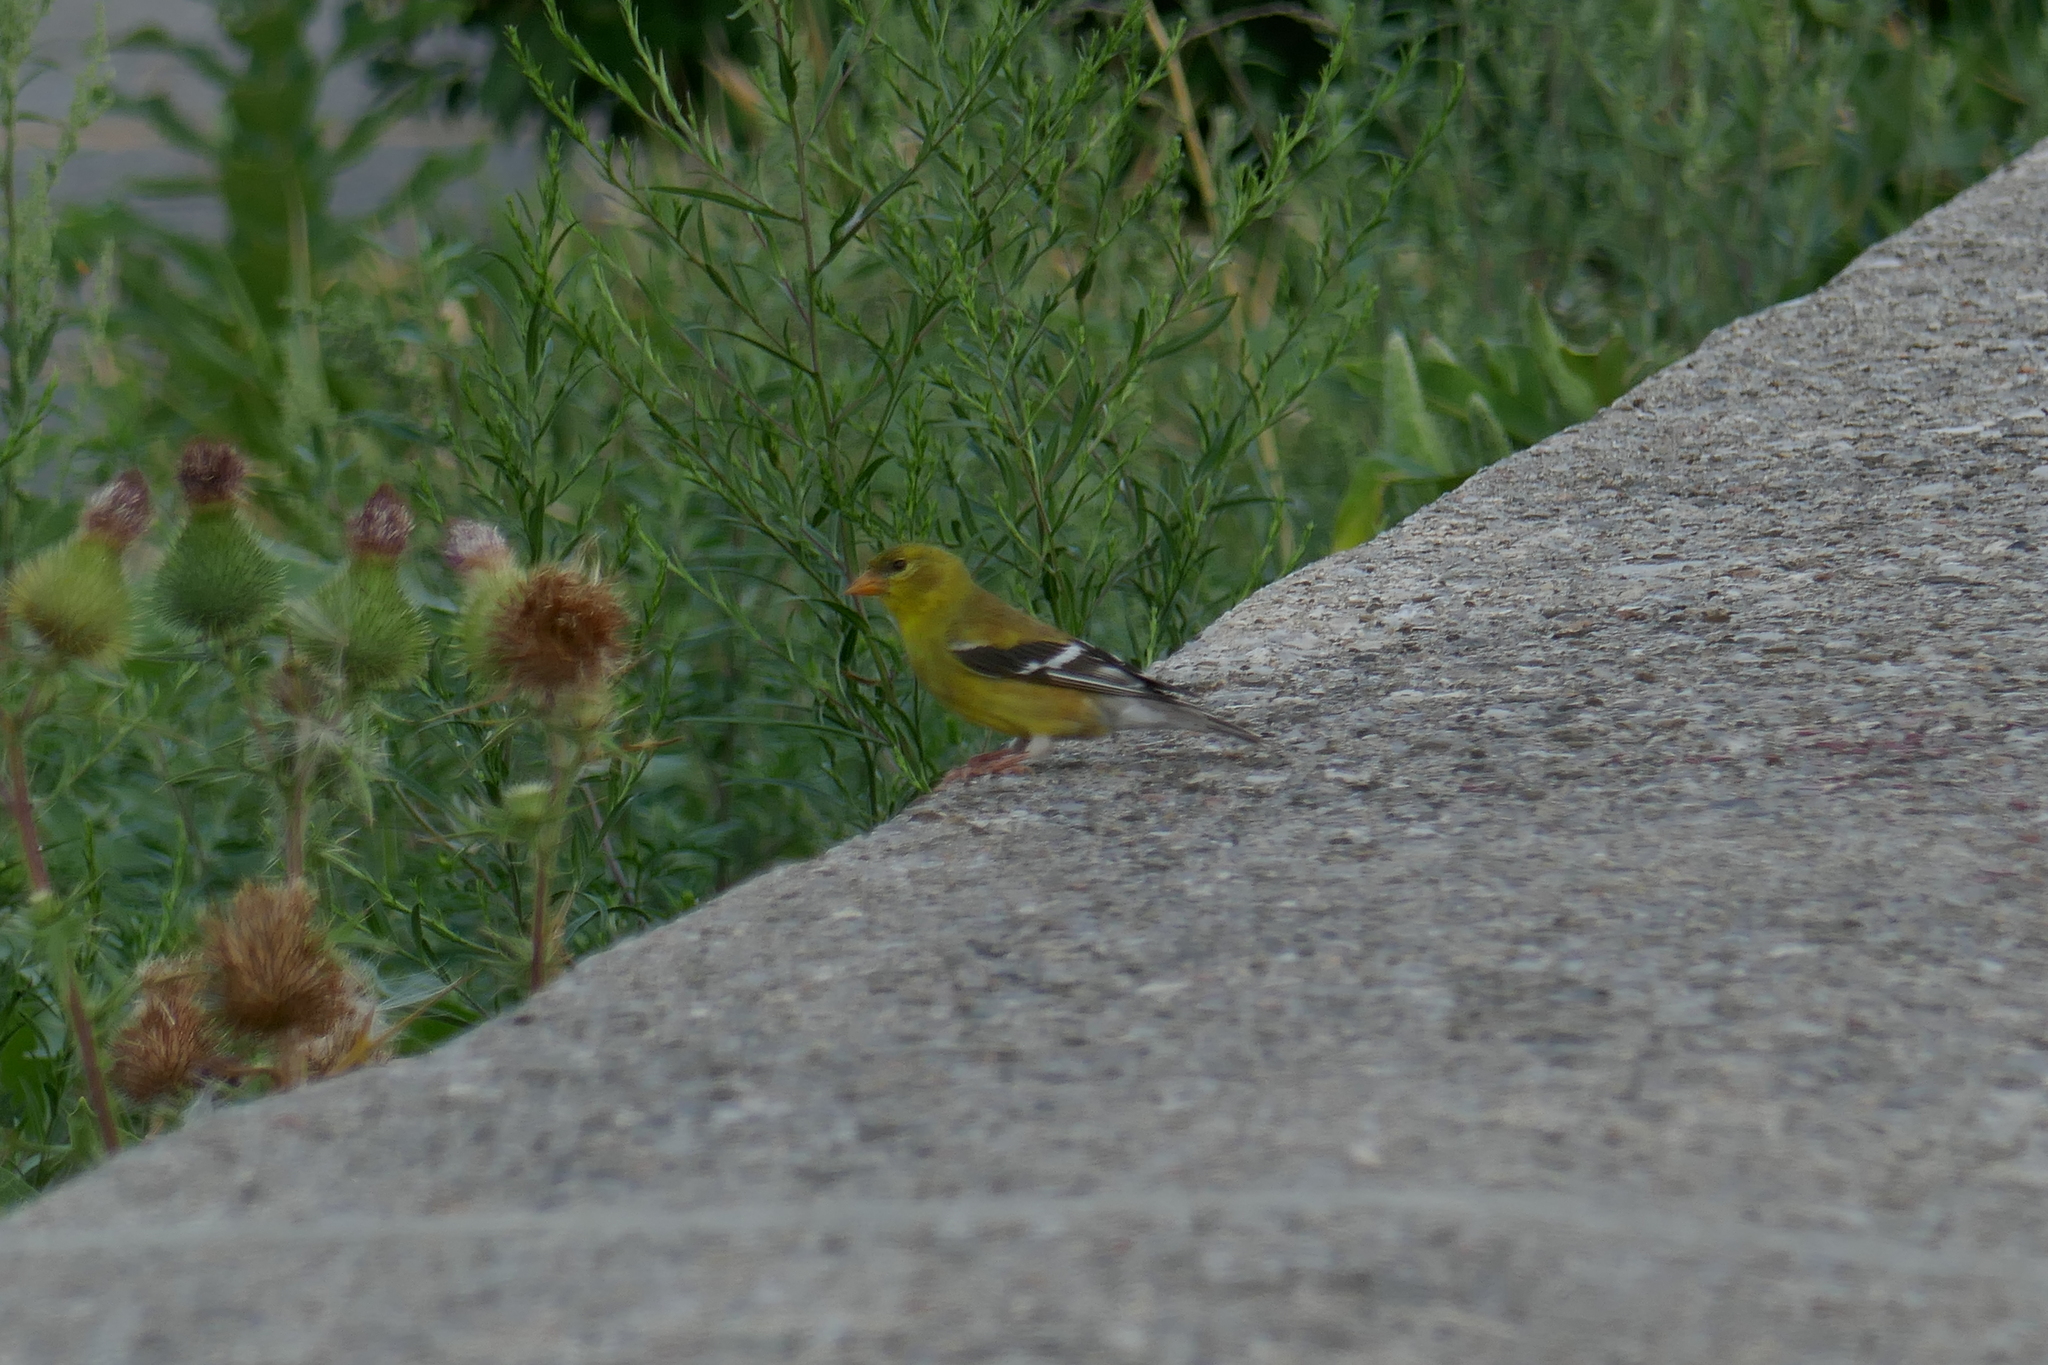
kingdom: Animalia
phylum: Chordata
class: Aves
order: Passeriformes
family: Fringillidae
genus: Spinus
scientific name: Spinus tristis
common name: American goldfinch
